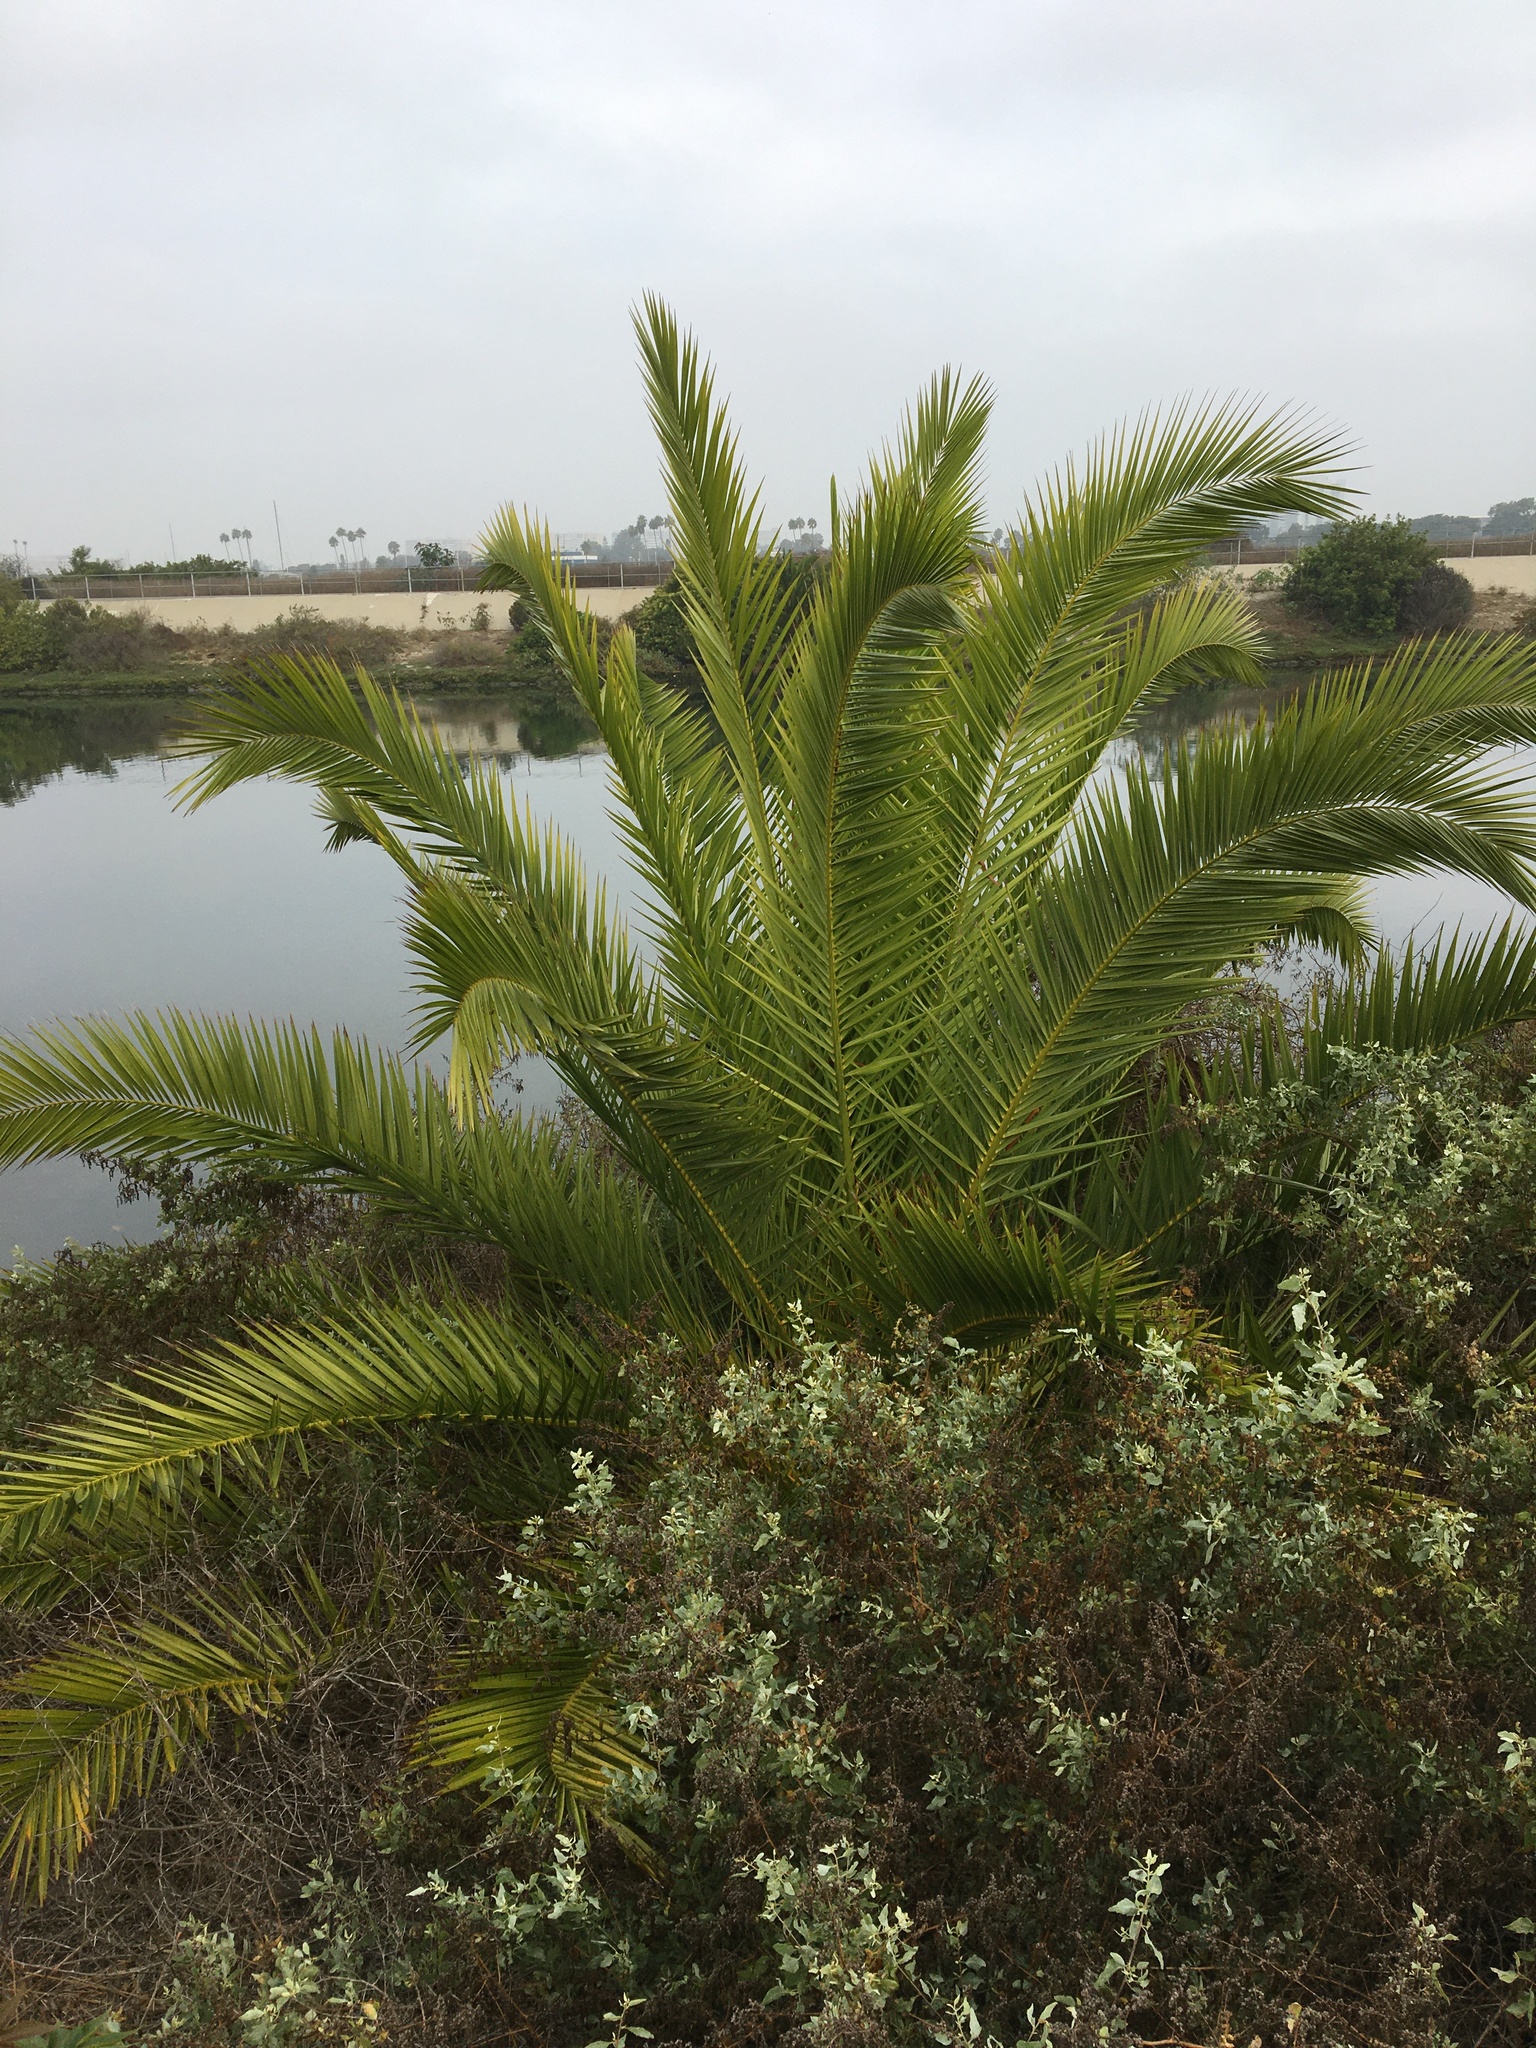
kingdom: Plantae
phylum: Tracheophyta
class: Liliopsida
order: Arecales
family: Arecaceae
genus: Phoenix
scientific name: Phoenix canariensis
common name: Canary island date palm
